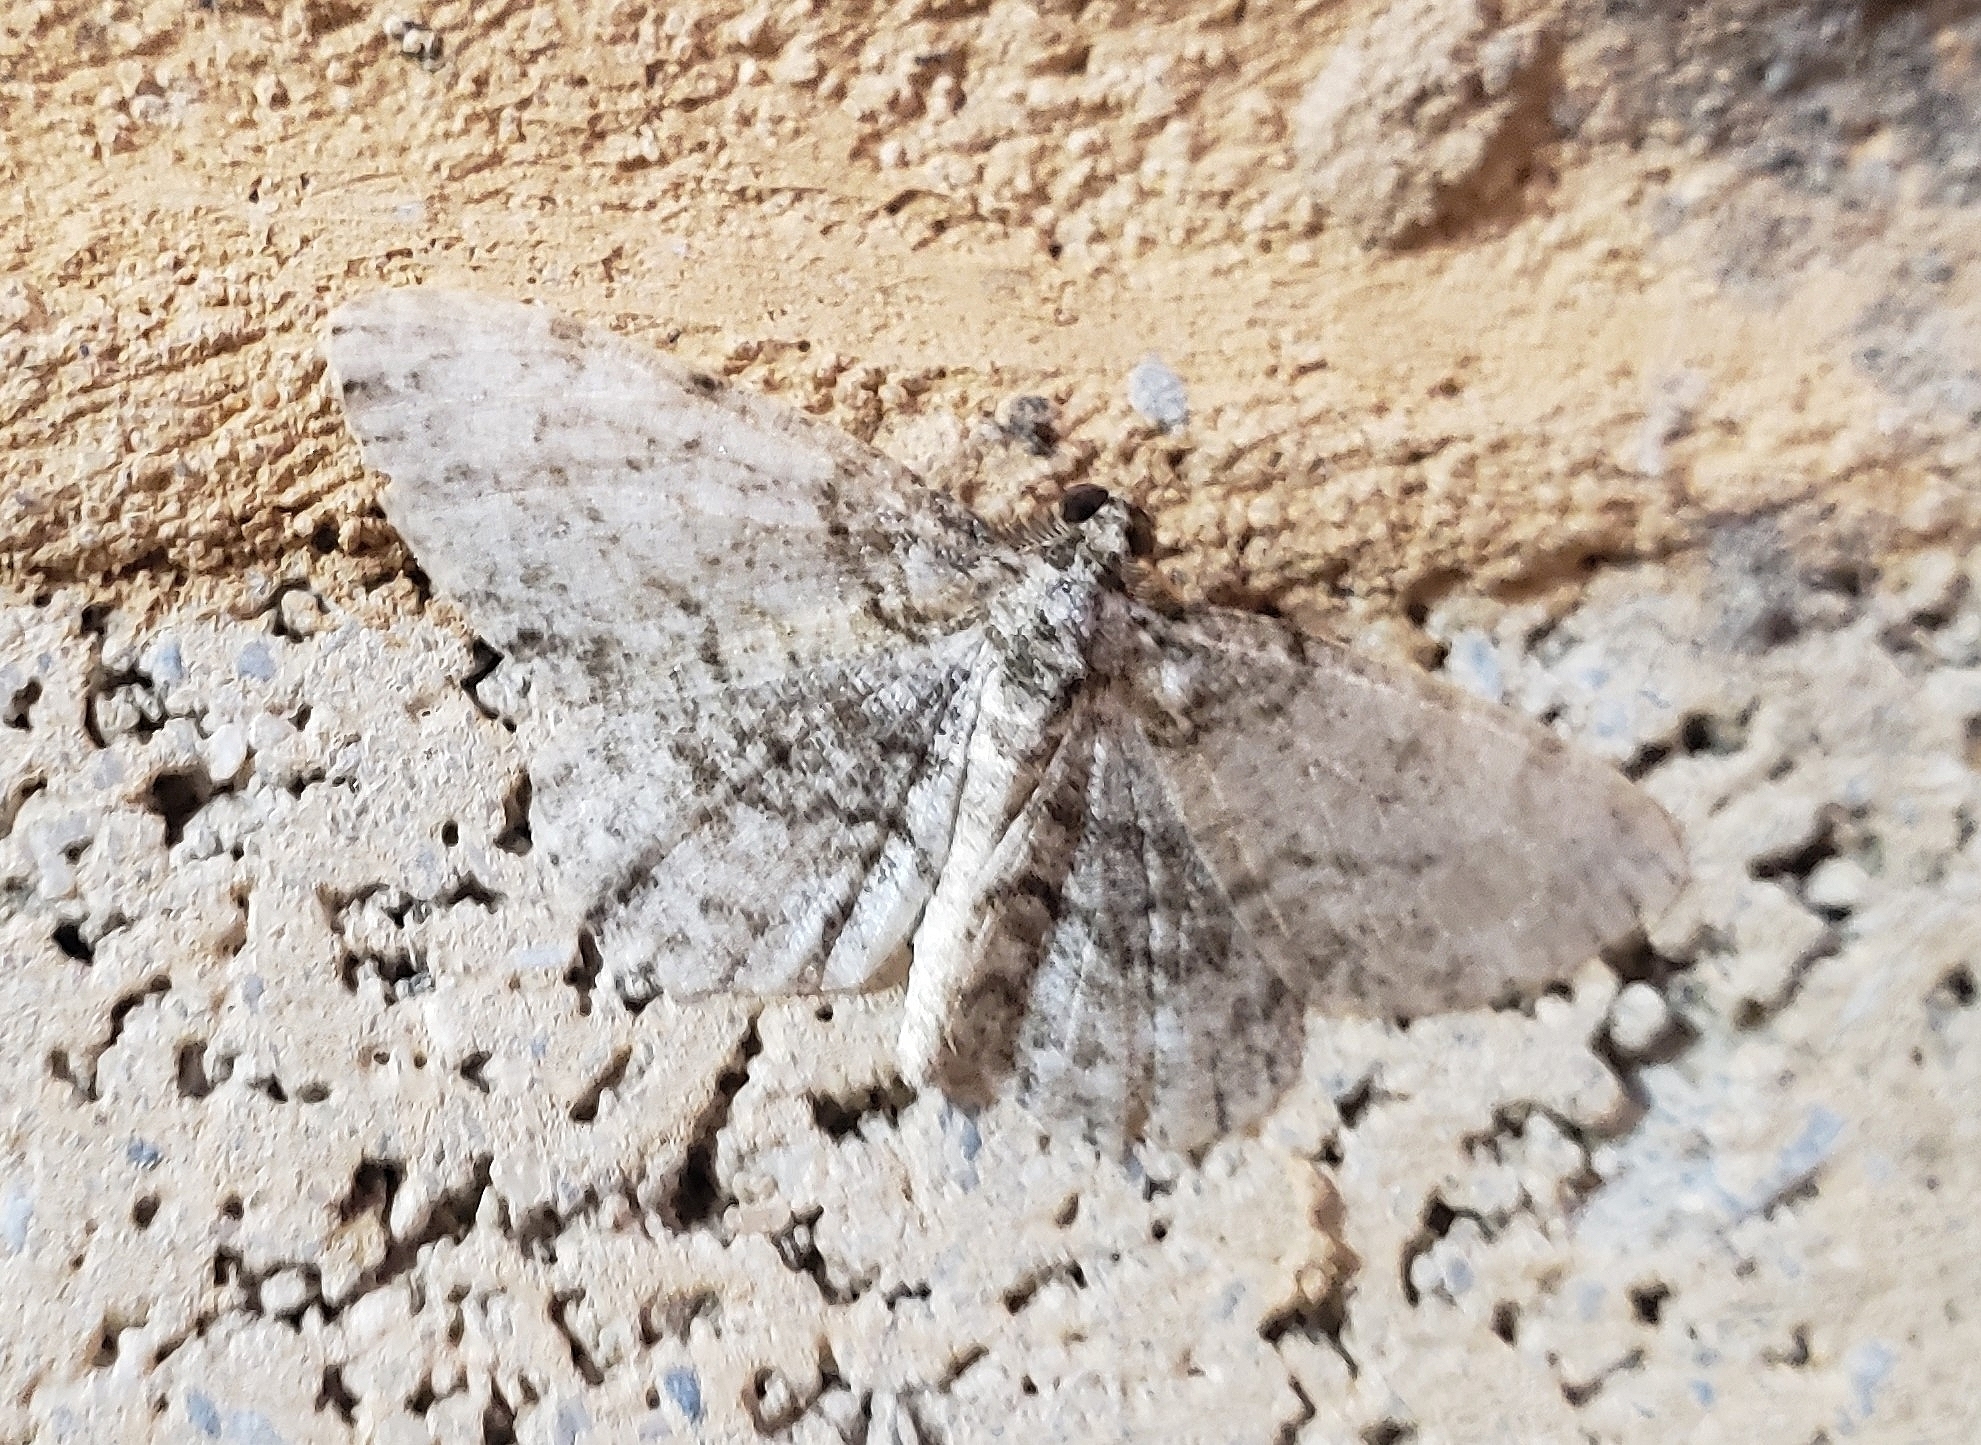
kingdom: Animalia
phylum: Arthropoda
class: Insecta
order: Lepidoptera
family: Geometridae
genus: Protoboarmia
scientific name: Protoboarmia porcelaria
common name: Porcelain gray
